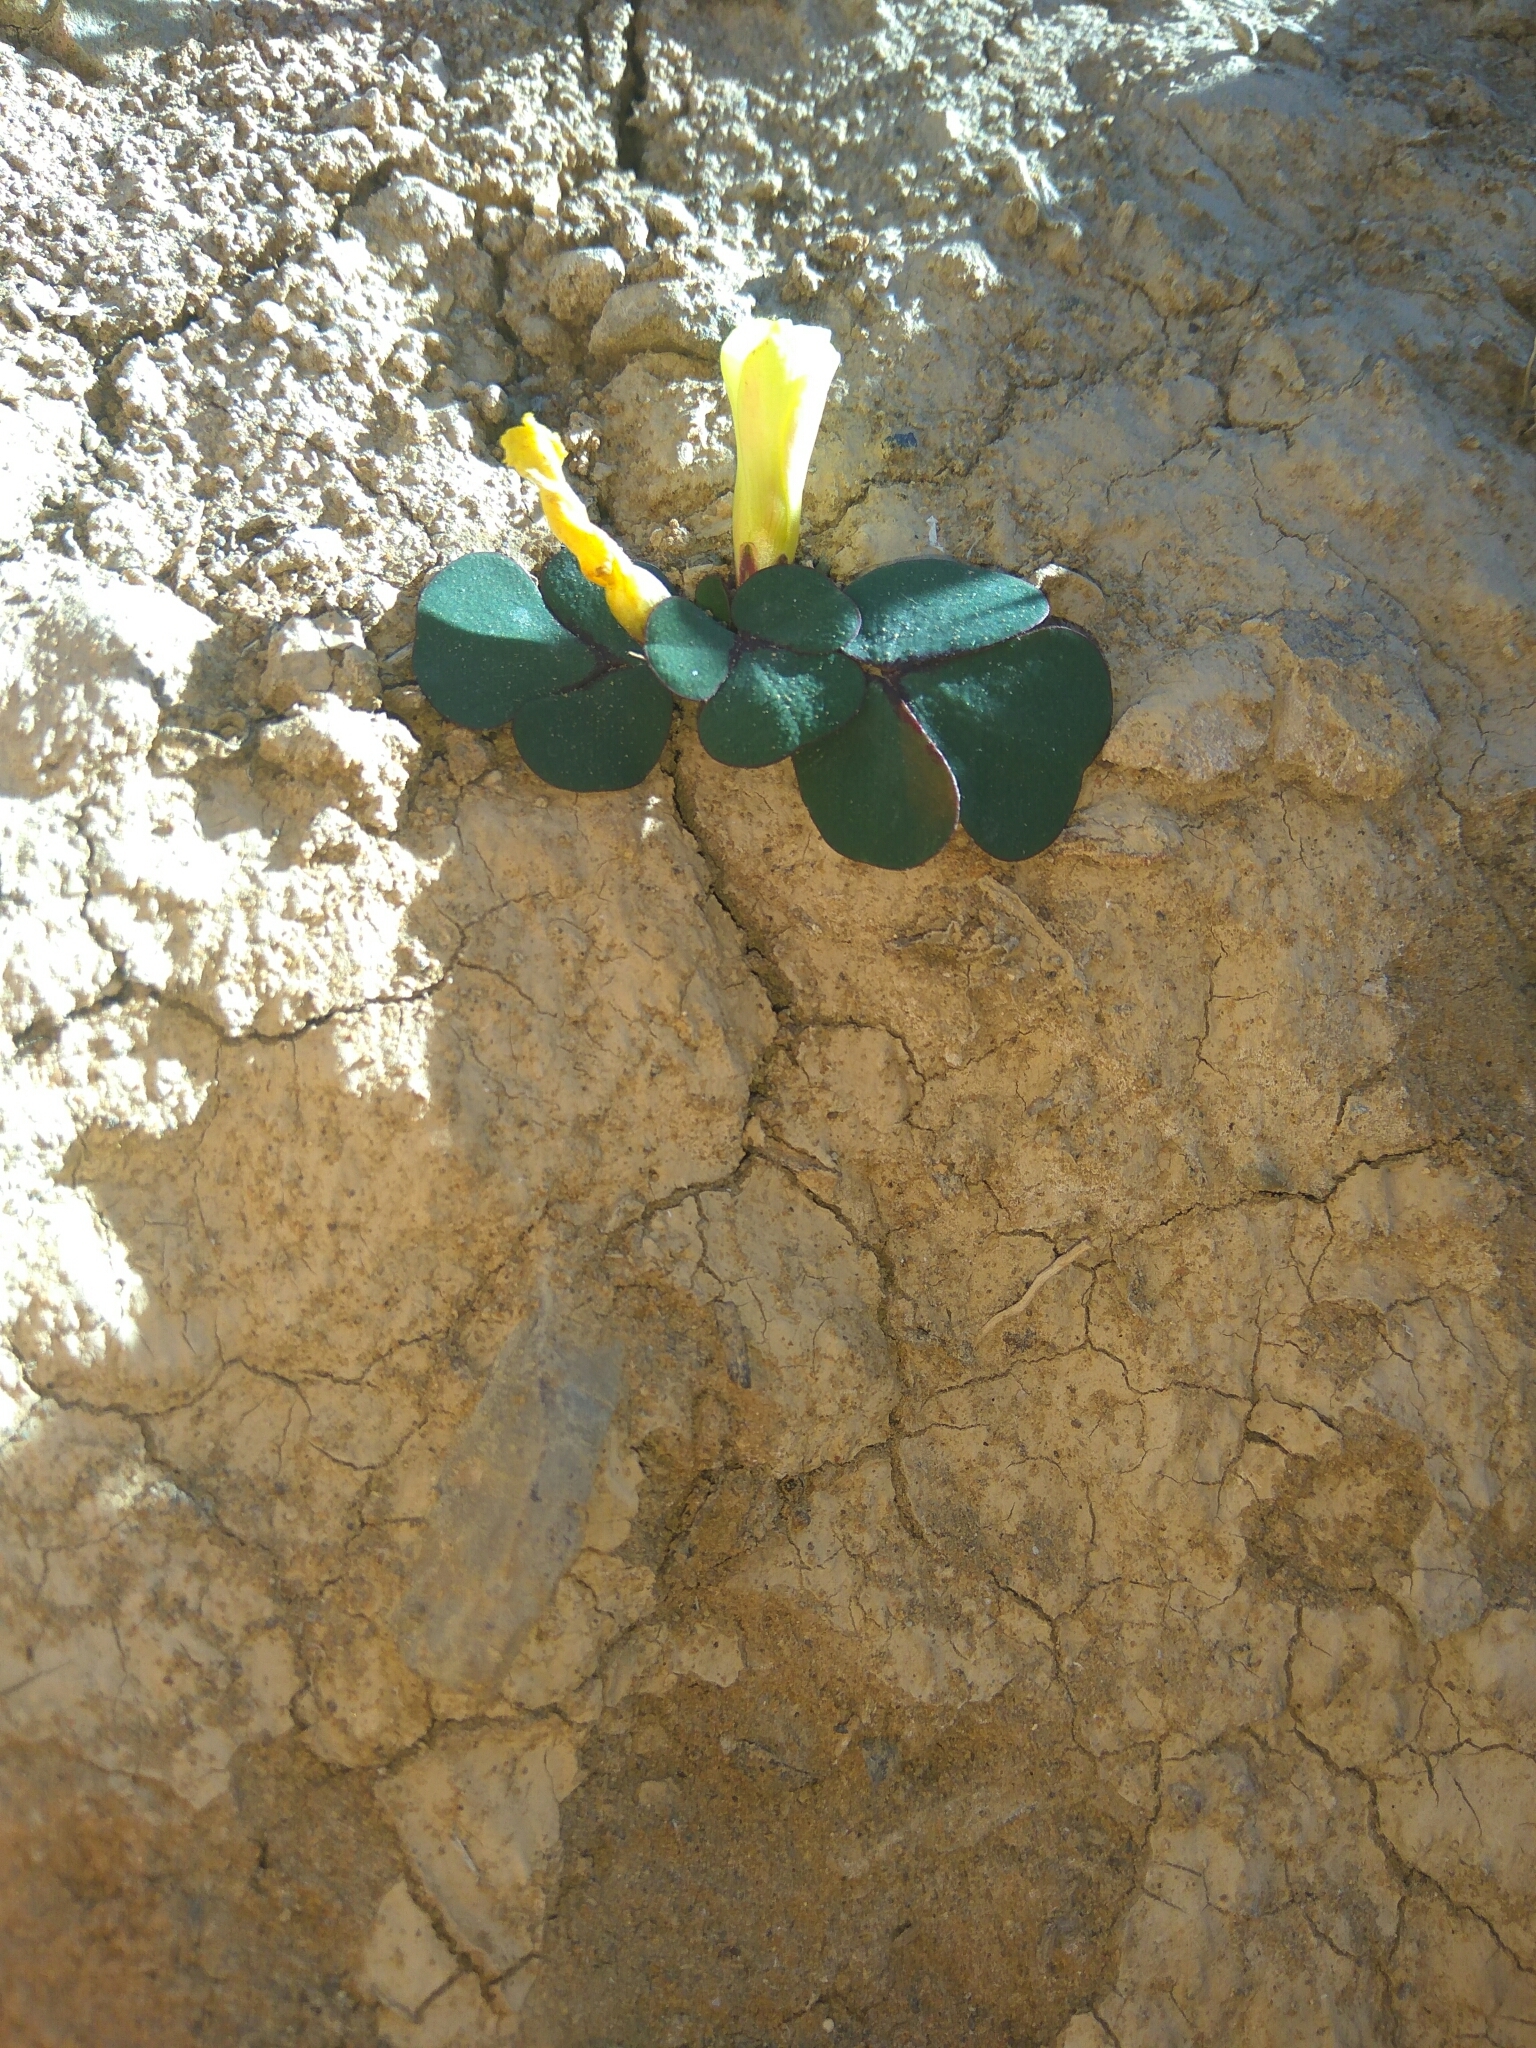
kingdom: Plantae
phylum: Tracheophyta
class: Magnoliopsida
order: Oxalidales
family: Oxalidaceae
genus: Oxalis
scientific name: Oxalis purpurea
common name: Purple woodsorrel
